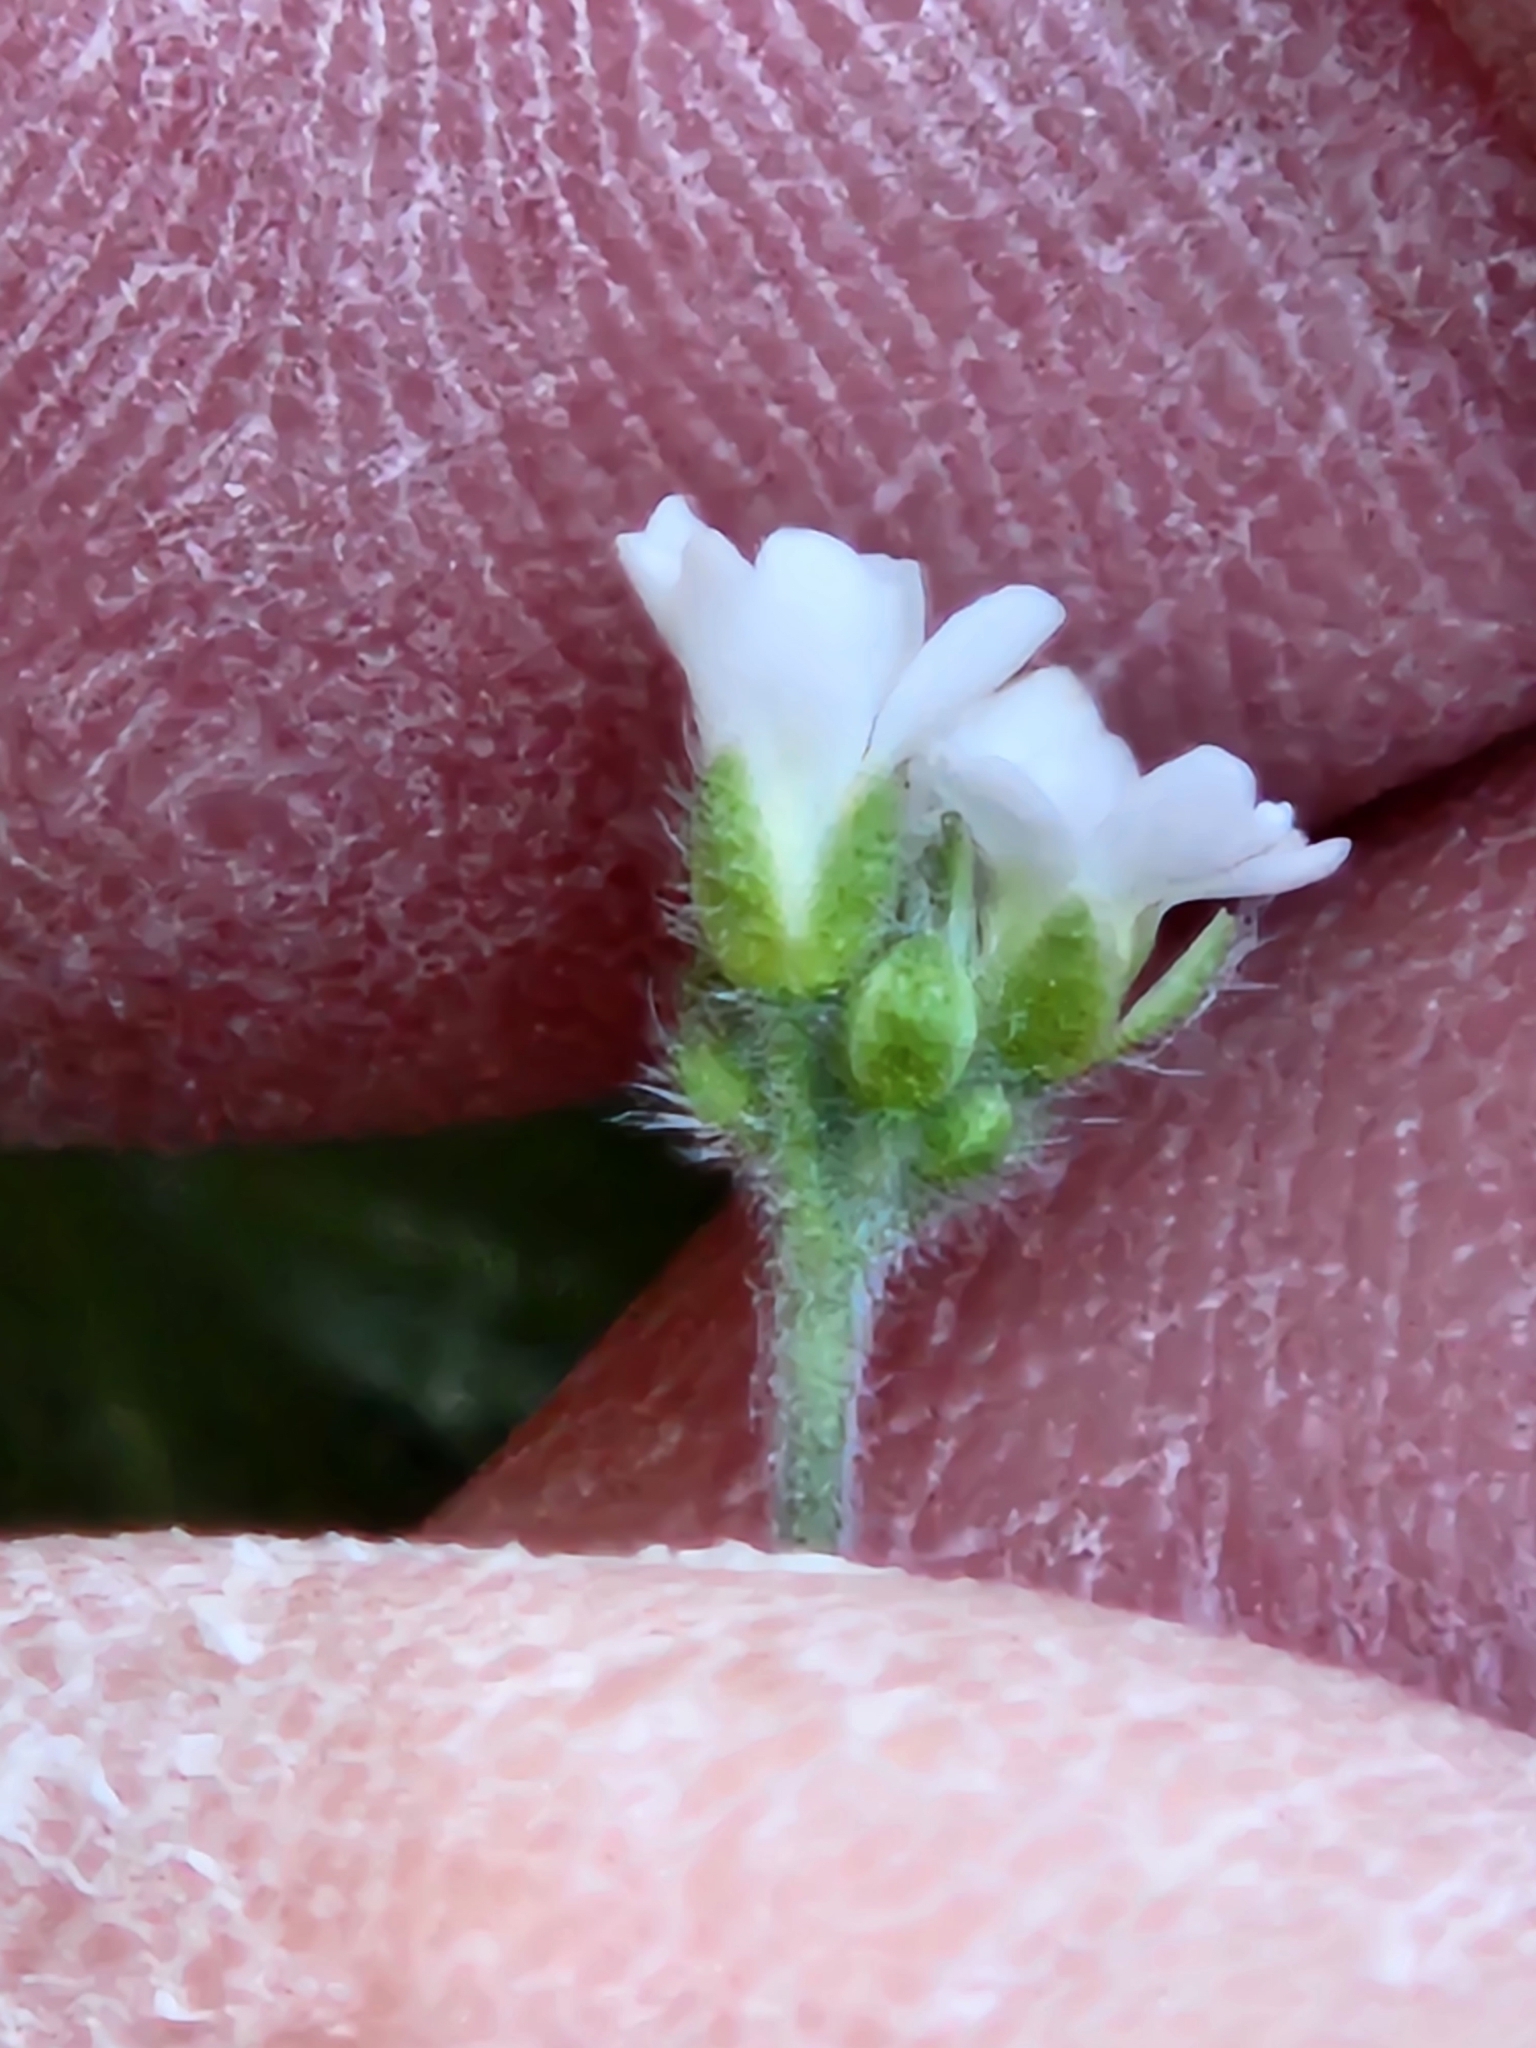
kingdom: Plantae
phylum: Tracheophyta
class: Magnoliopsida
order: Brassicales
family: Brassicaceae
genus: Tomostima
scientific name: Tomostima cuneifolia
